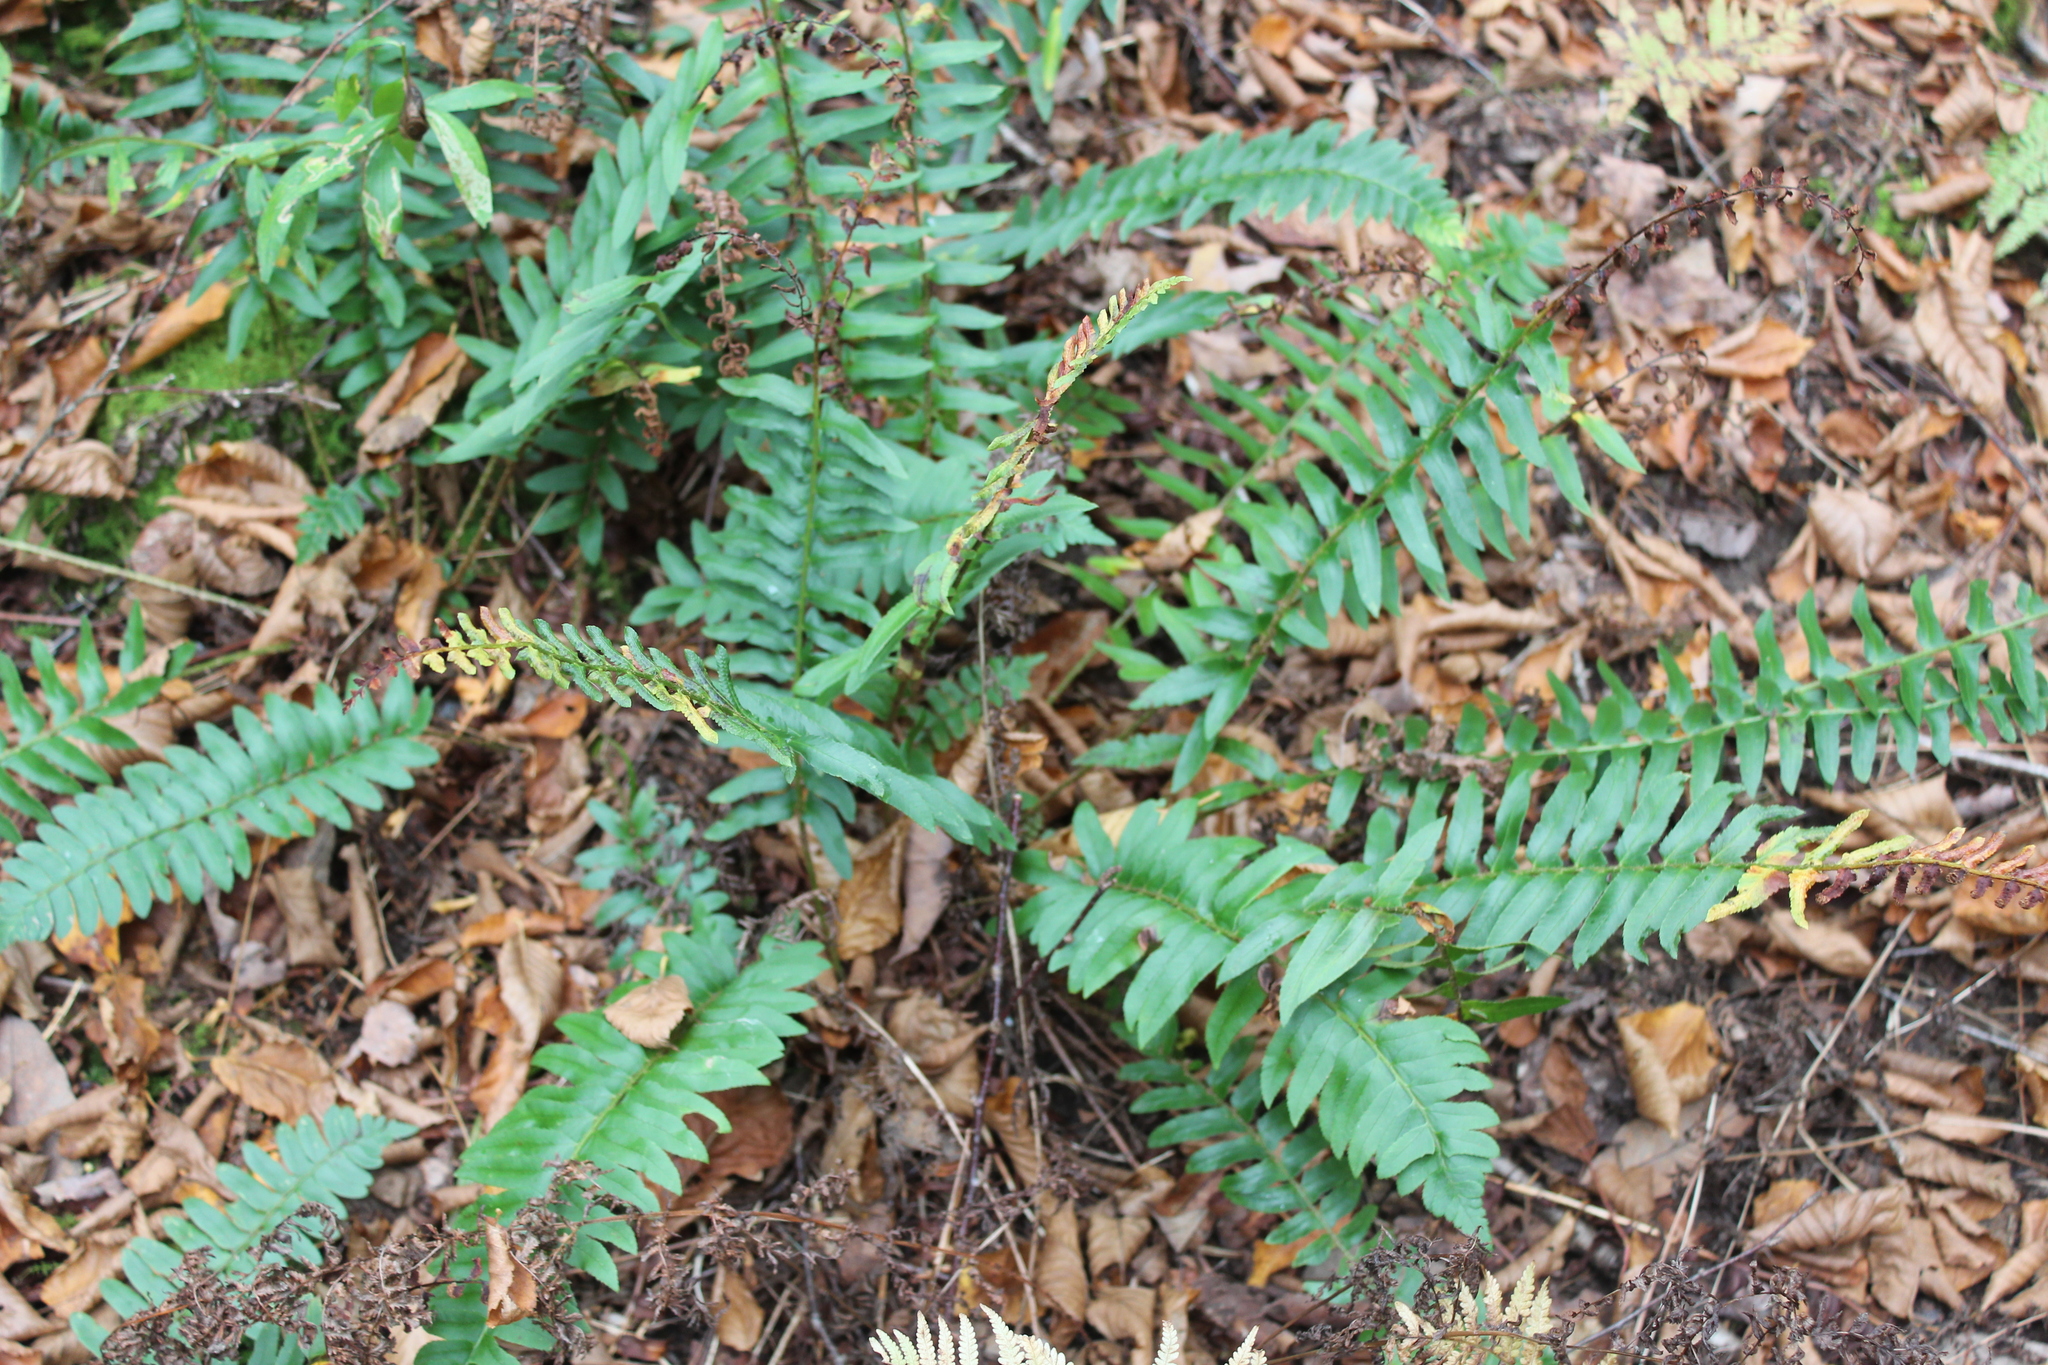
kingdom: Plantae
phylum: Tracheophyta
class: Polypodiopsida
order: Polypodiales
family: Dryopteridaceae
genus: Polystichum
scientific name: Polystichum acrostichoides
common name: Christmas fern
